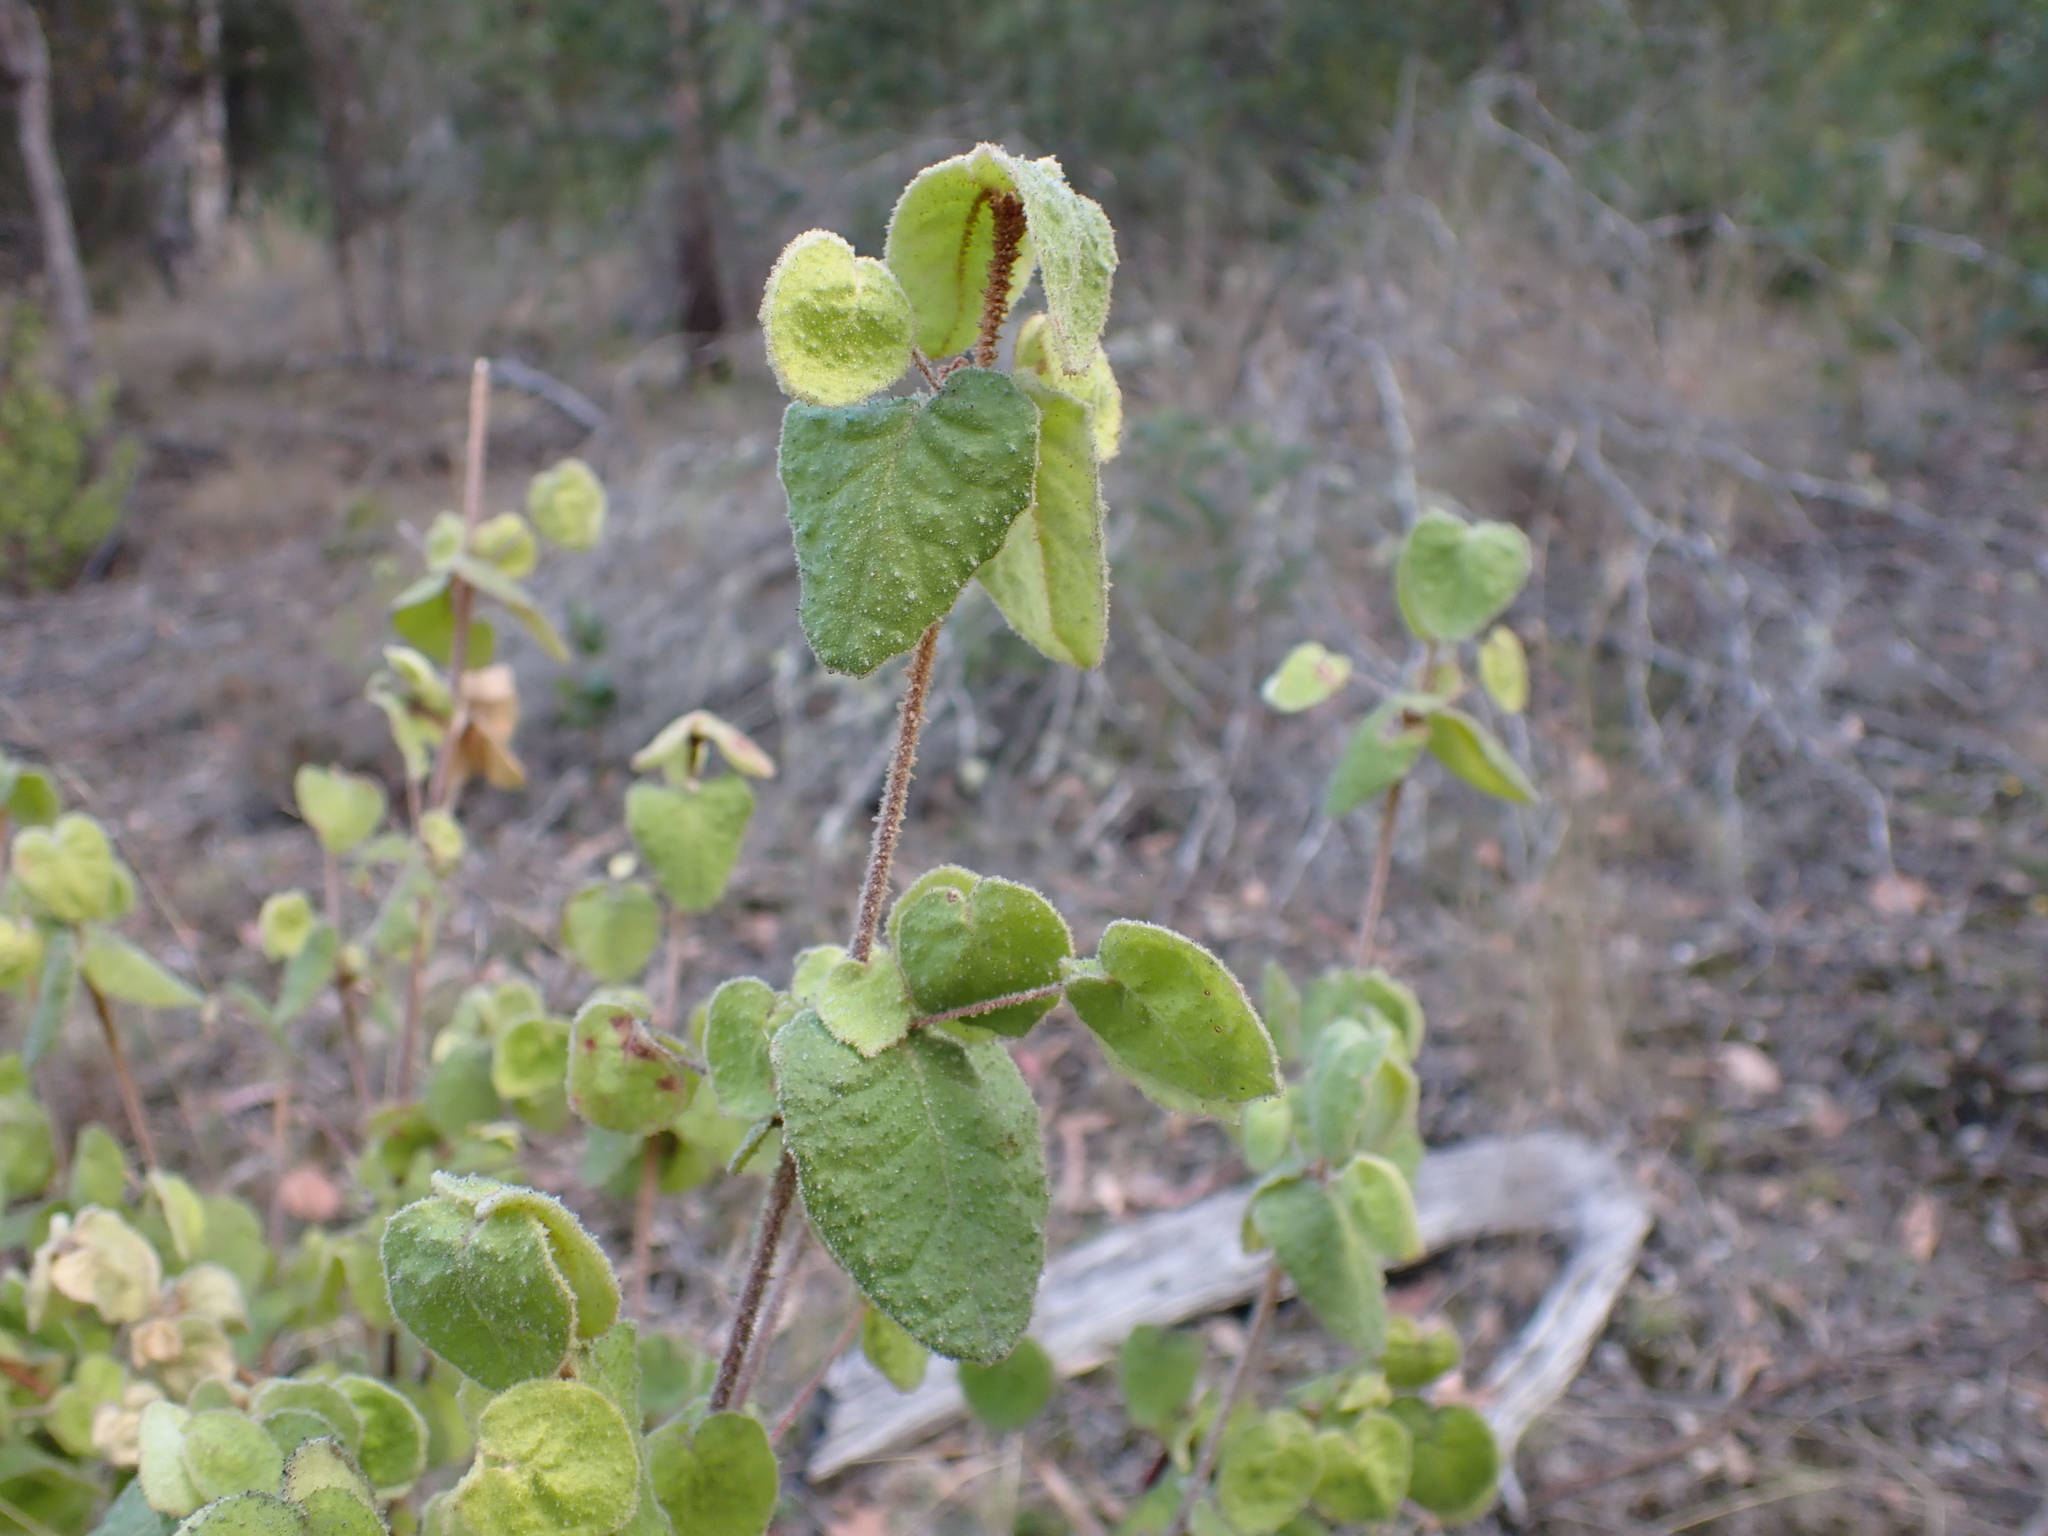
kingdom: Plantae
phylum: Tracheophyta
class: Magnoliopsida
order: Sapindales
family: Rutaceae
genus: Correa
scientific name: Correa reflexa
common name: Common correa
